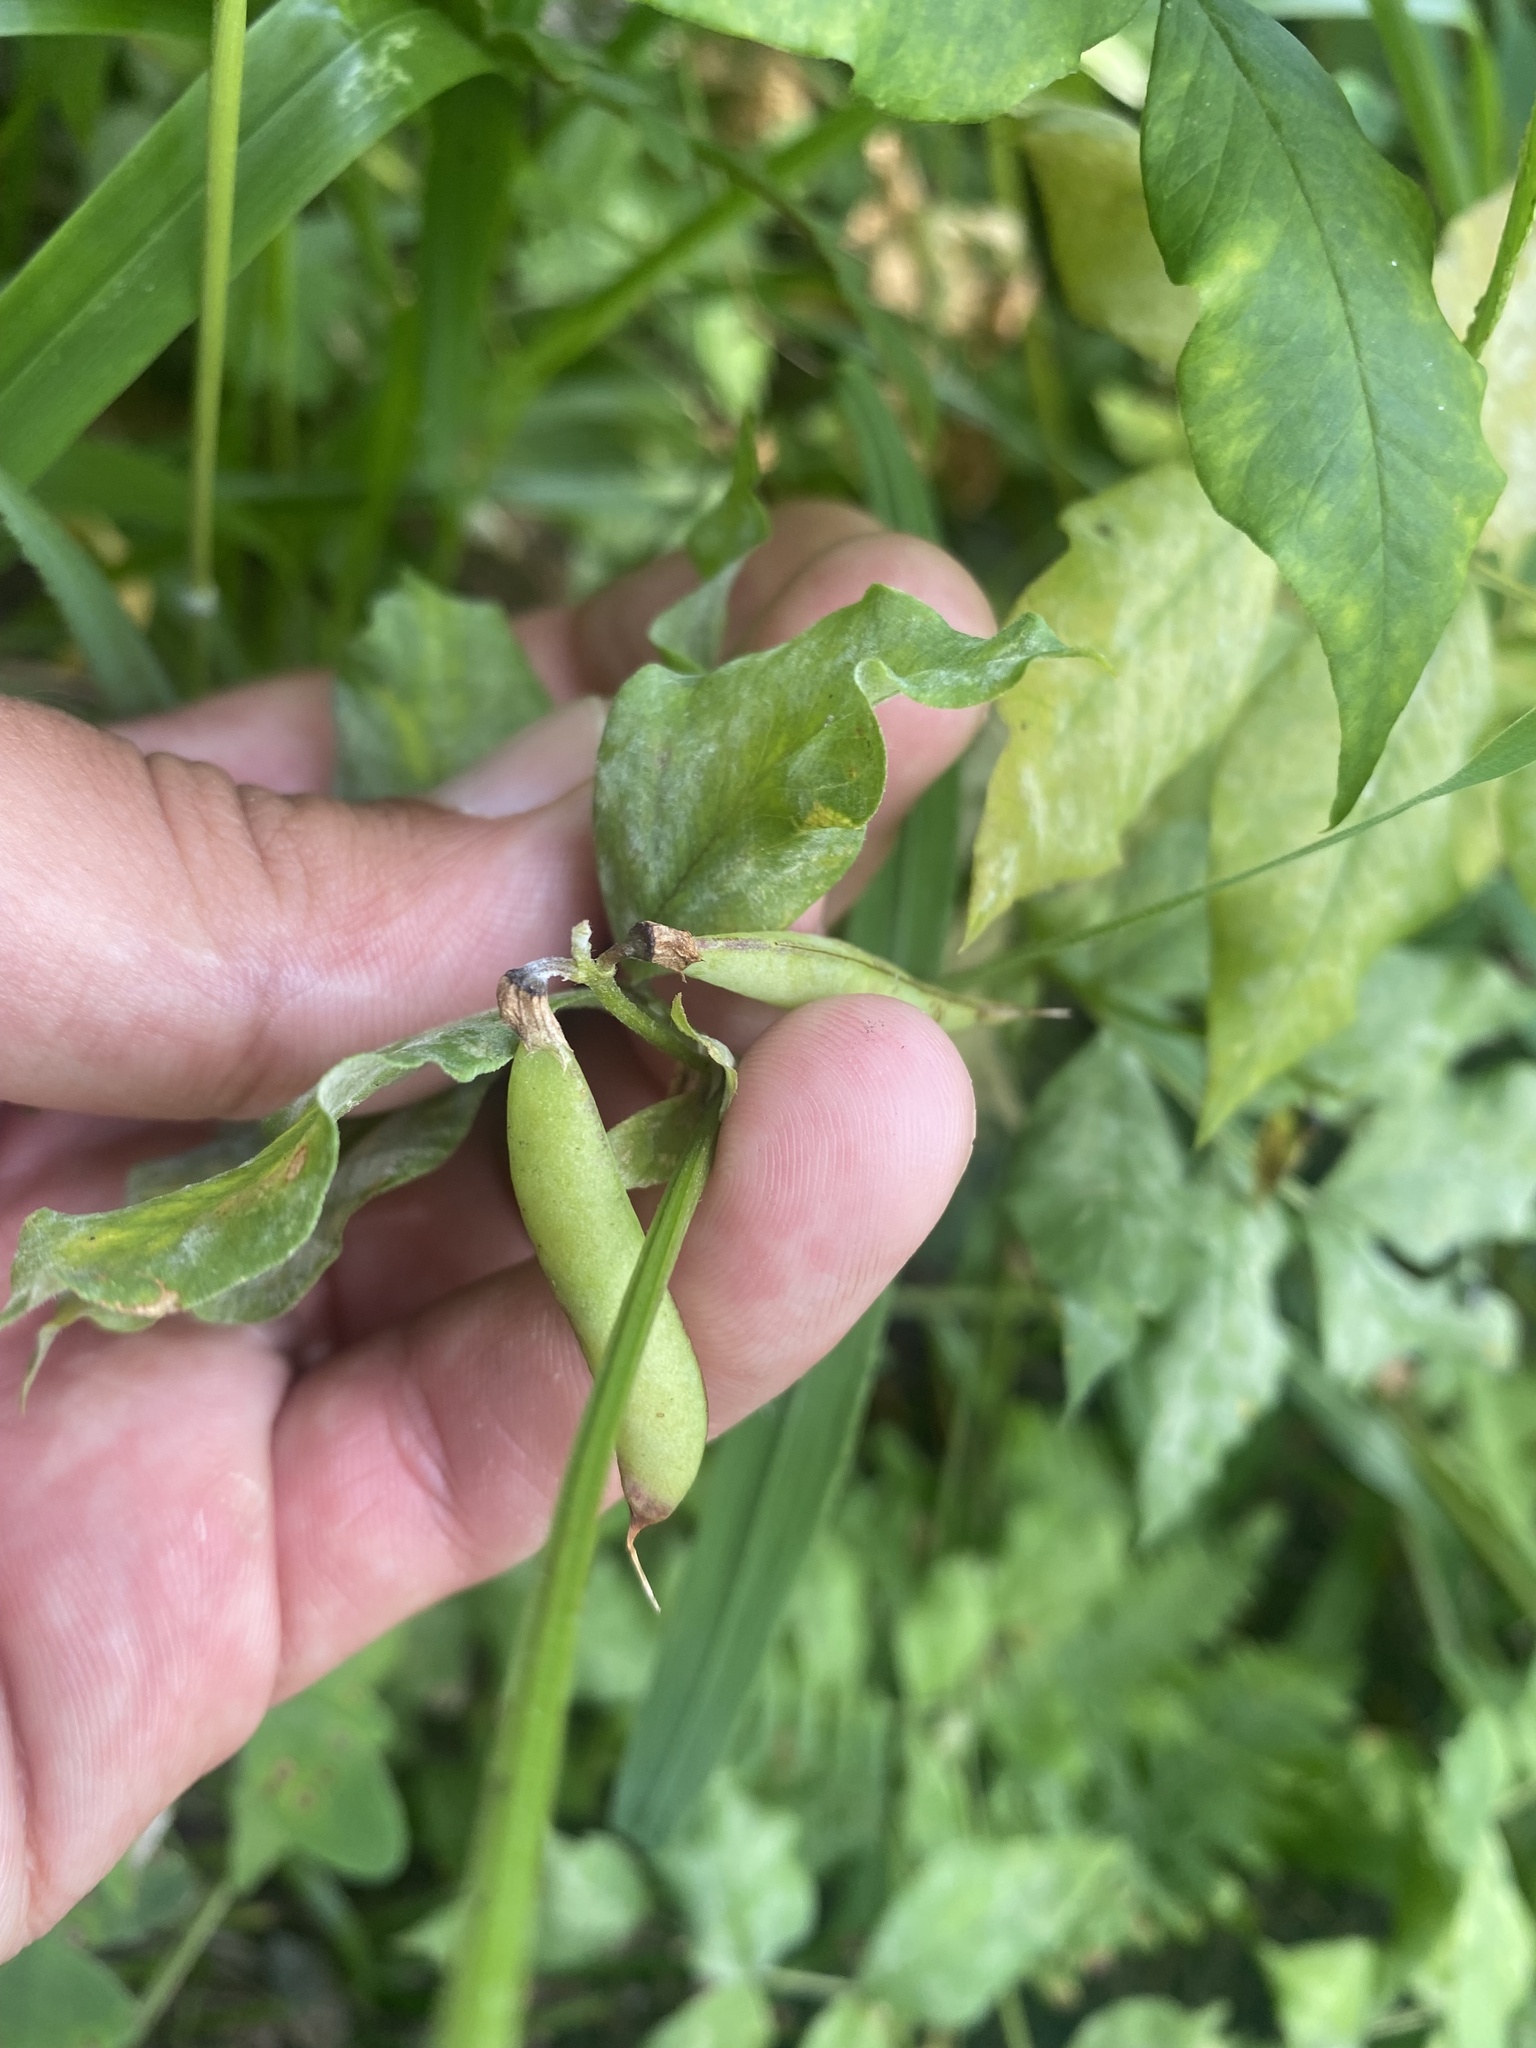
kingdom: Plantae
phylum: Tracheophyta
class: Magnoliopsida
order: Fabales
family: Fabaceae
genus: Vicia
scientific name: Vicia ramuliflora
